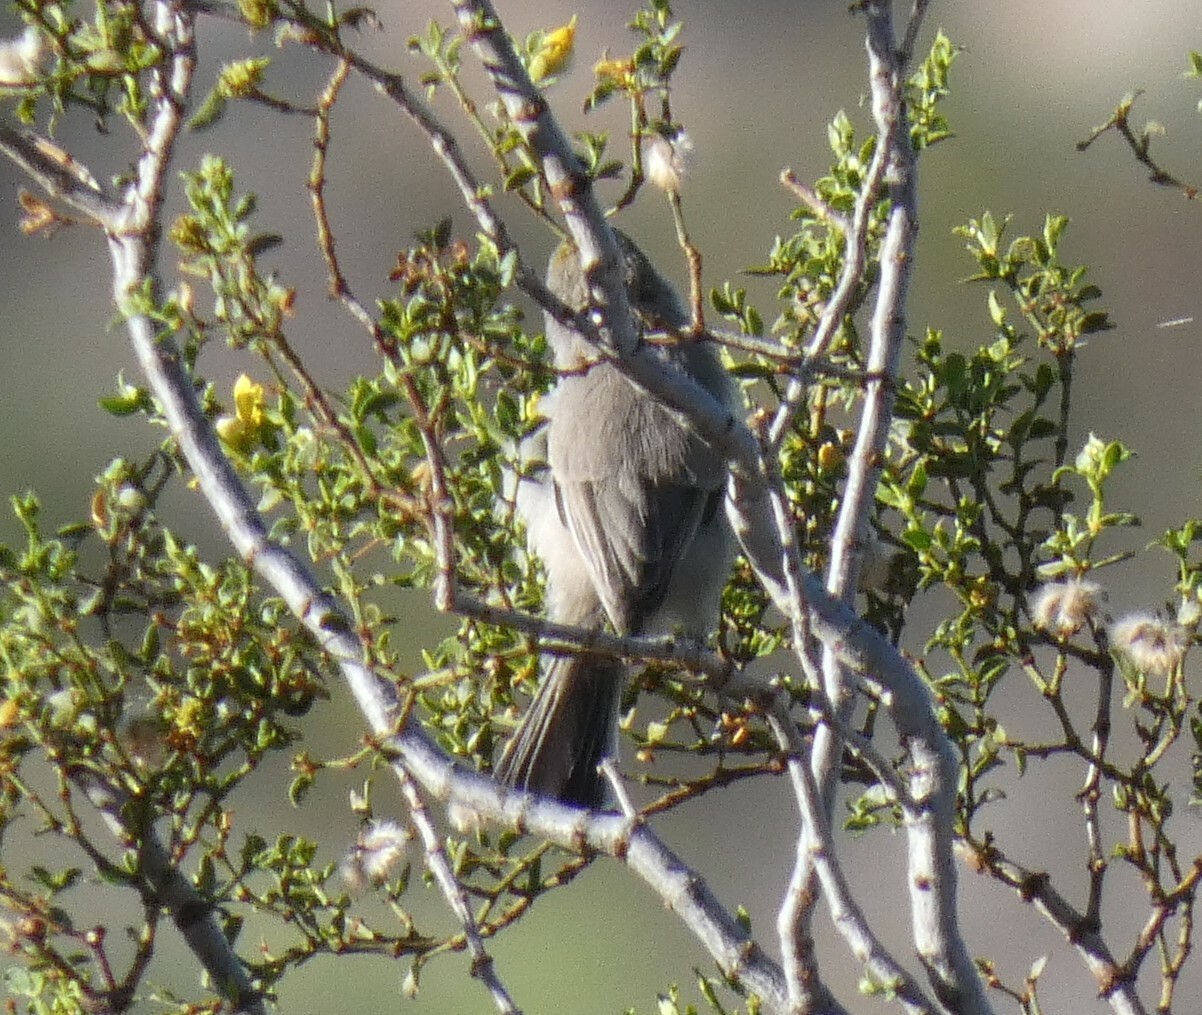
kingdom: Animalia
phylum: Chordata
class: Aves
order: Passeriformes
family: Remizidae
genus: Auriparus
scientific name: Auriparus flaviceps
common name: Verdin
